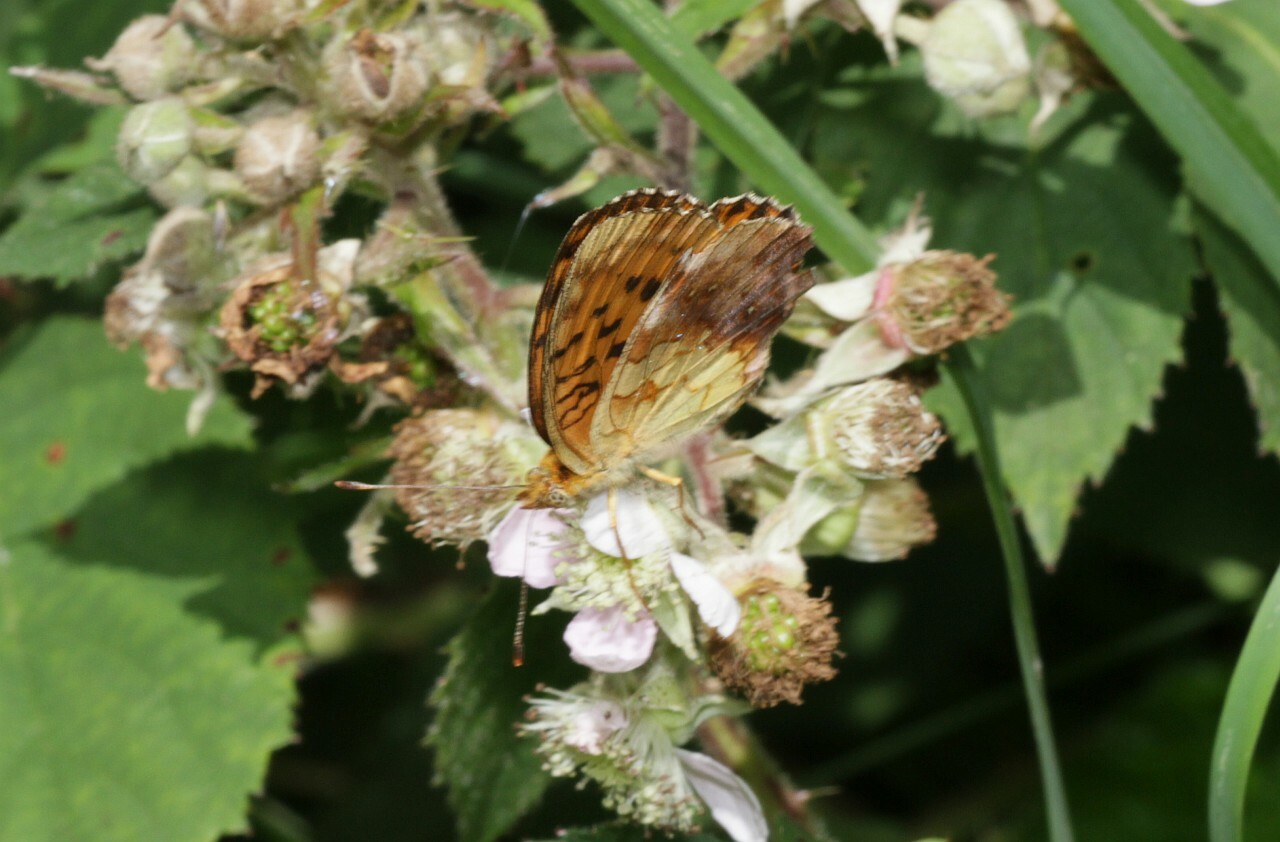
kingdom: Animalia
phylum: Arthropoda
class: Insecta
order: Lepidoptera
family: Nymphalidae
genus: Brenthis
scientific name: Brenthis daphne
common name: Marbled fritillary
